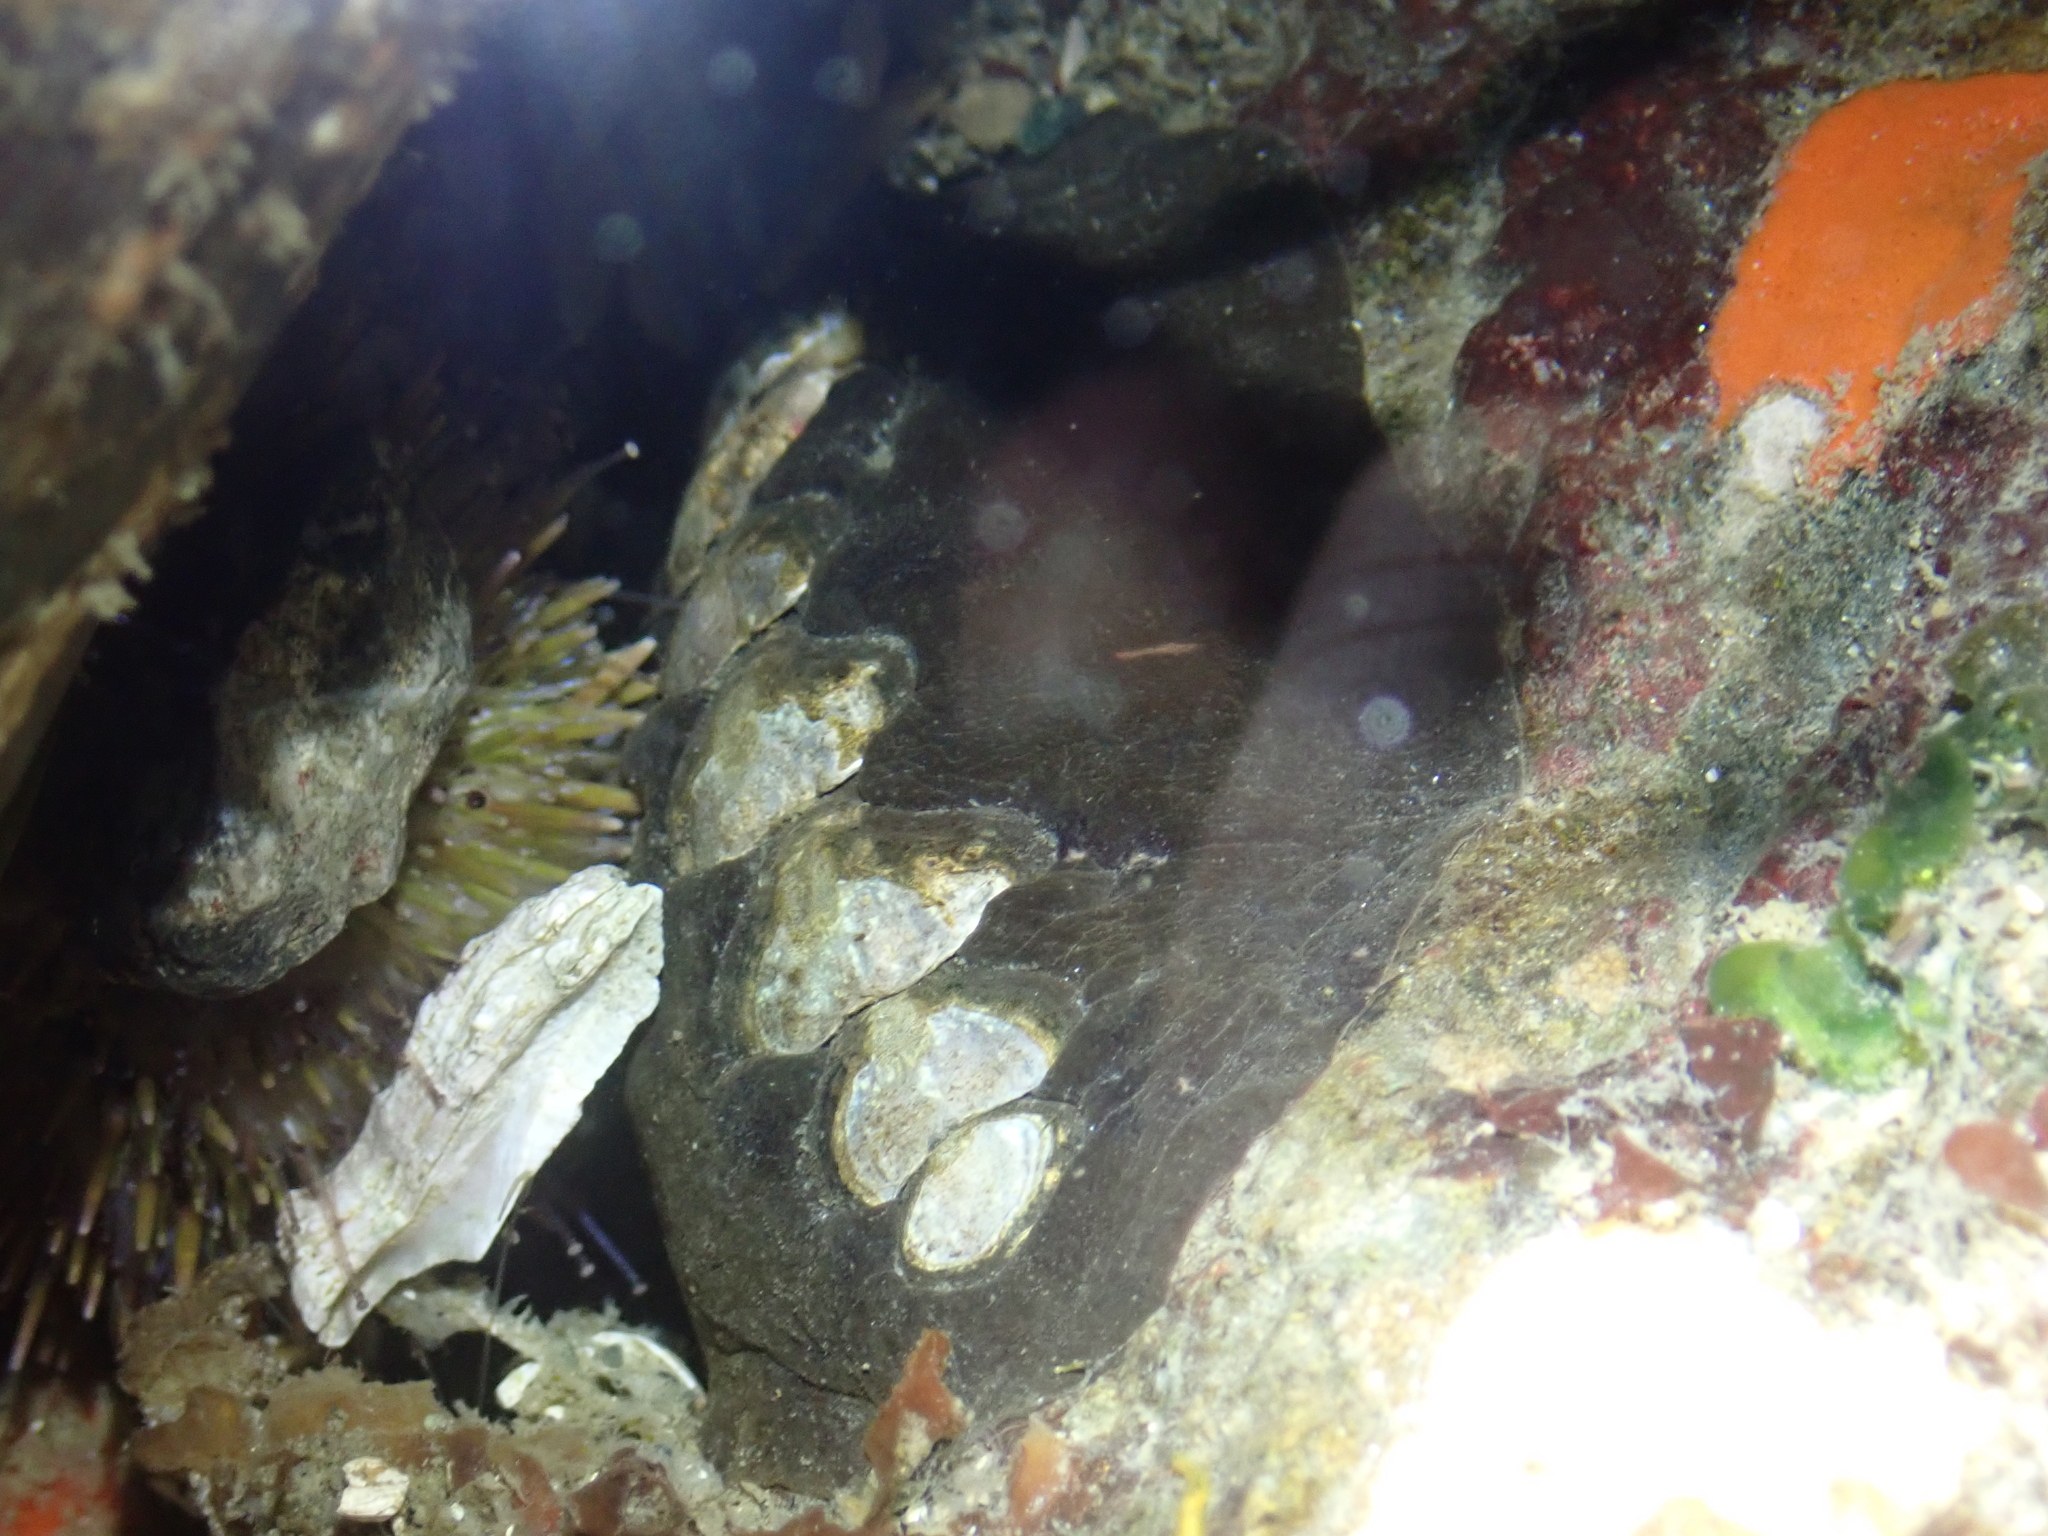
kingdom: Animalia
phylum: Mollusca
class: Polyplacophora
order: Chitonida
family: Mopaliidae
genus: Katharina
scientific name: Katharina tunicata
